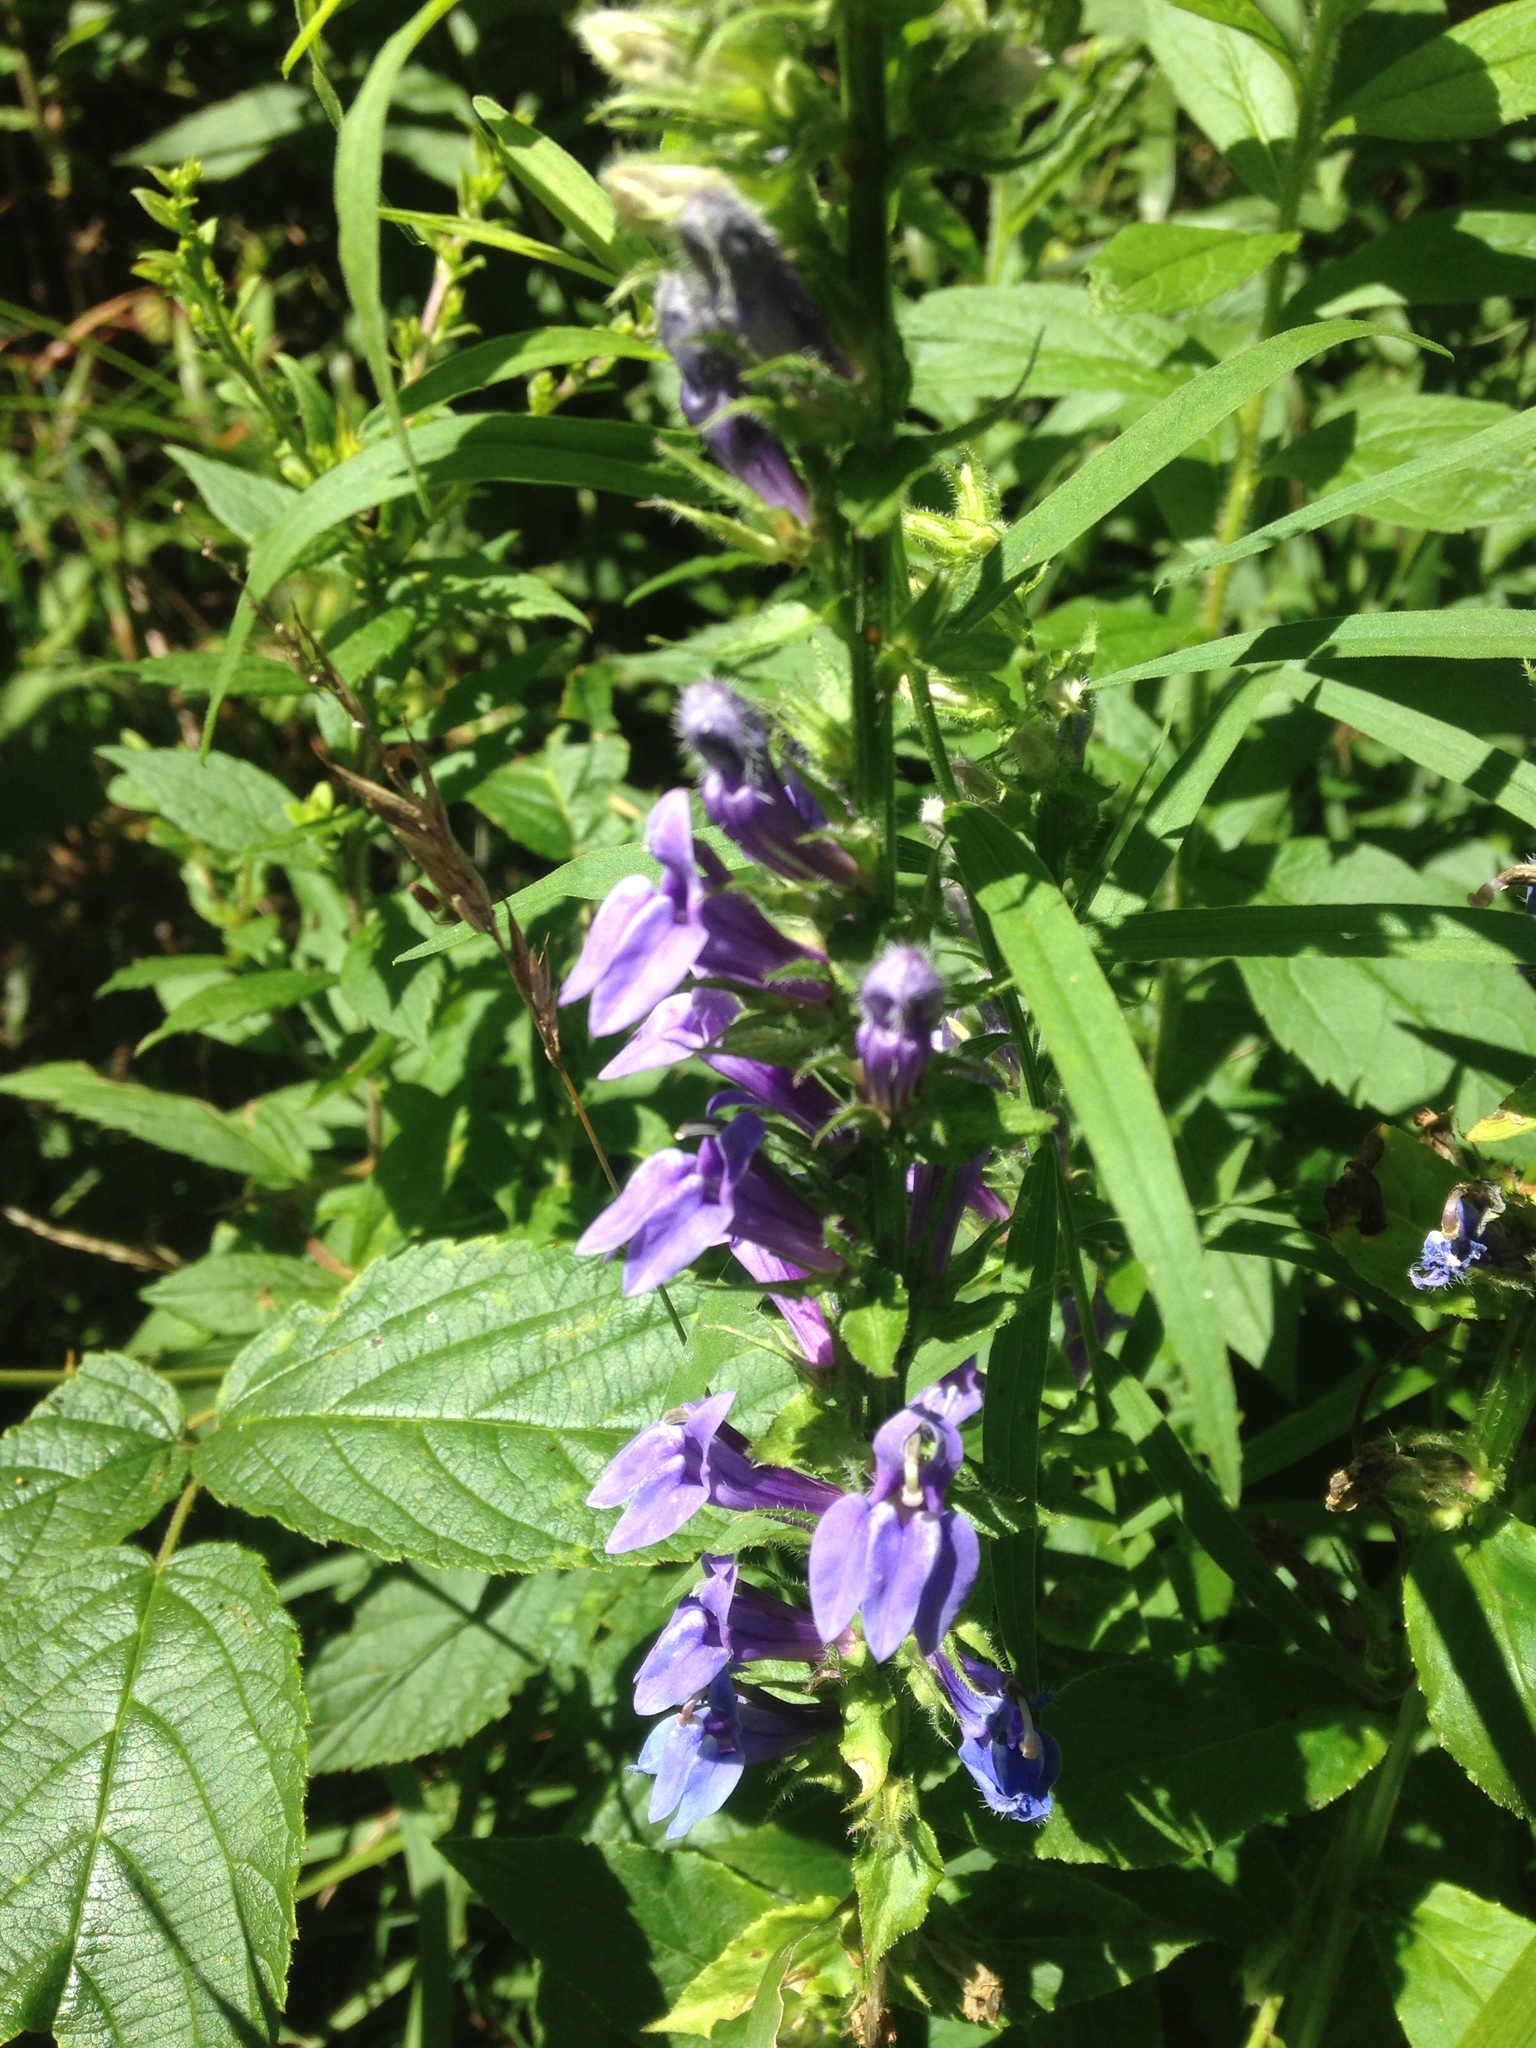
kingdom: Plantae
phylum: Tracheophyta
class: Magnoliopsida
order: Asterales
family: Campanulaceae
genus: Lobelia
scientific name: Lobelia siphilitica
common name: Great lobelia
